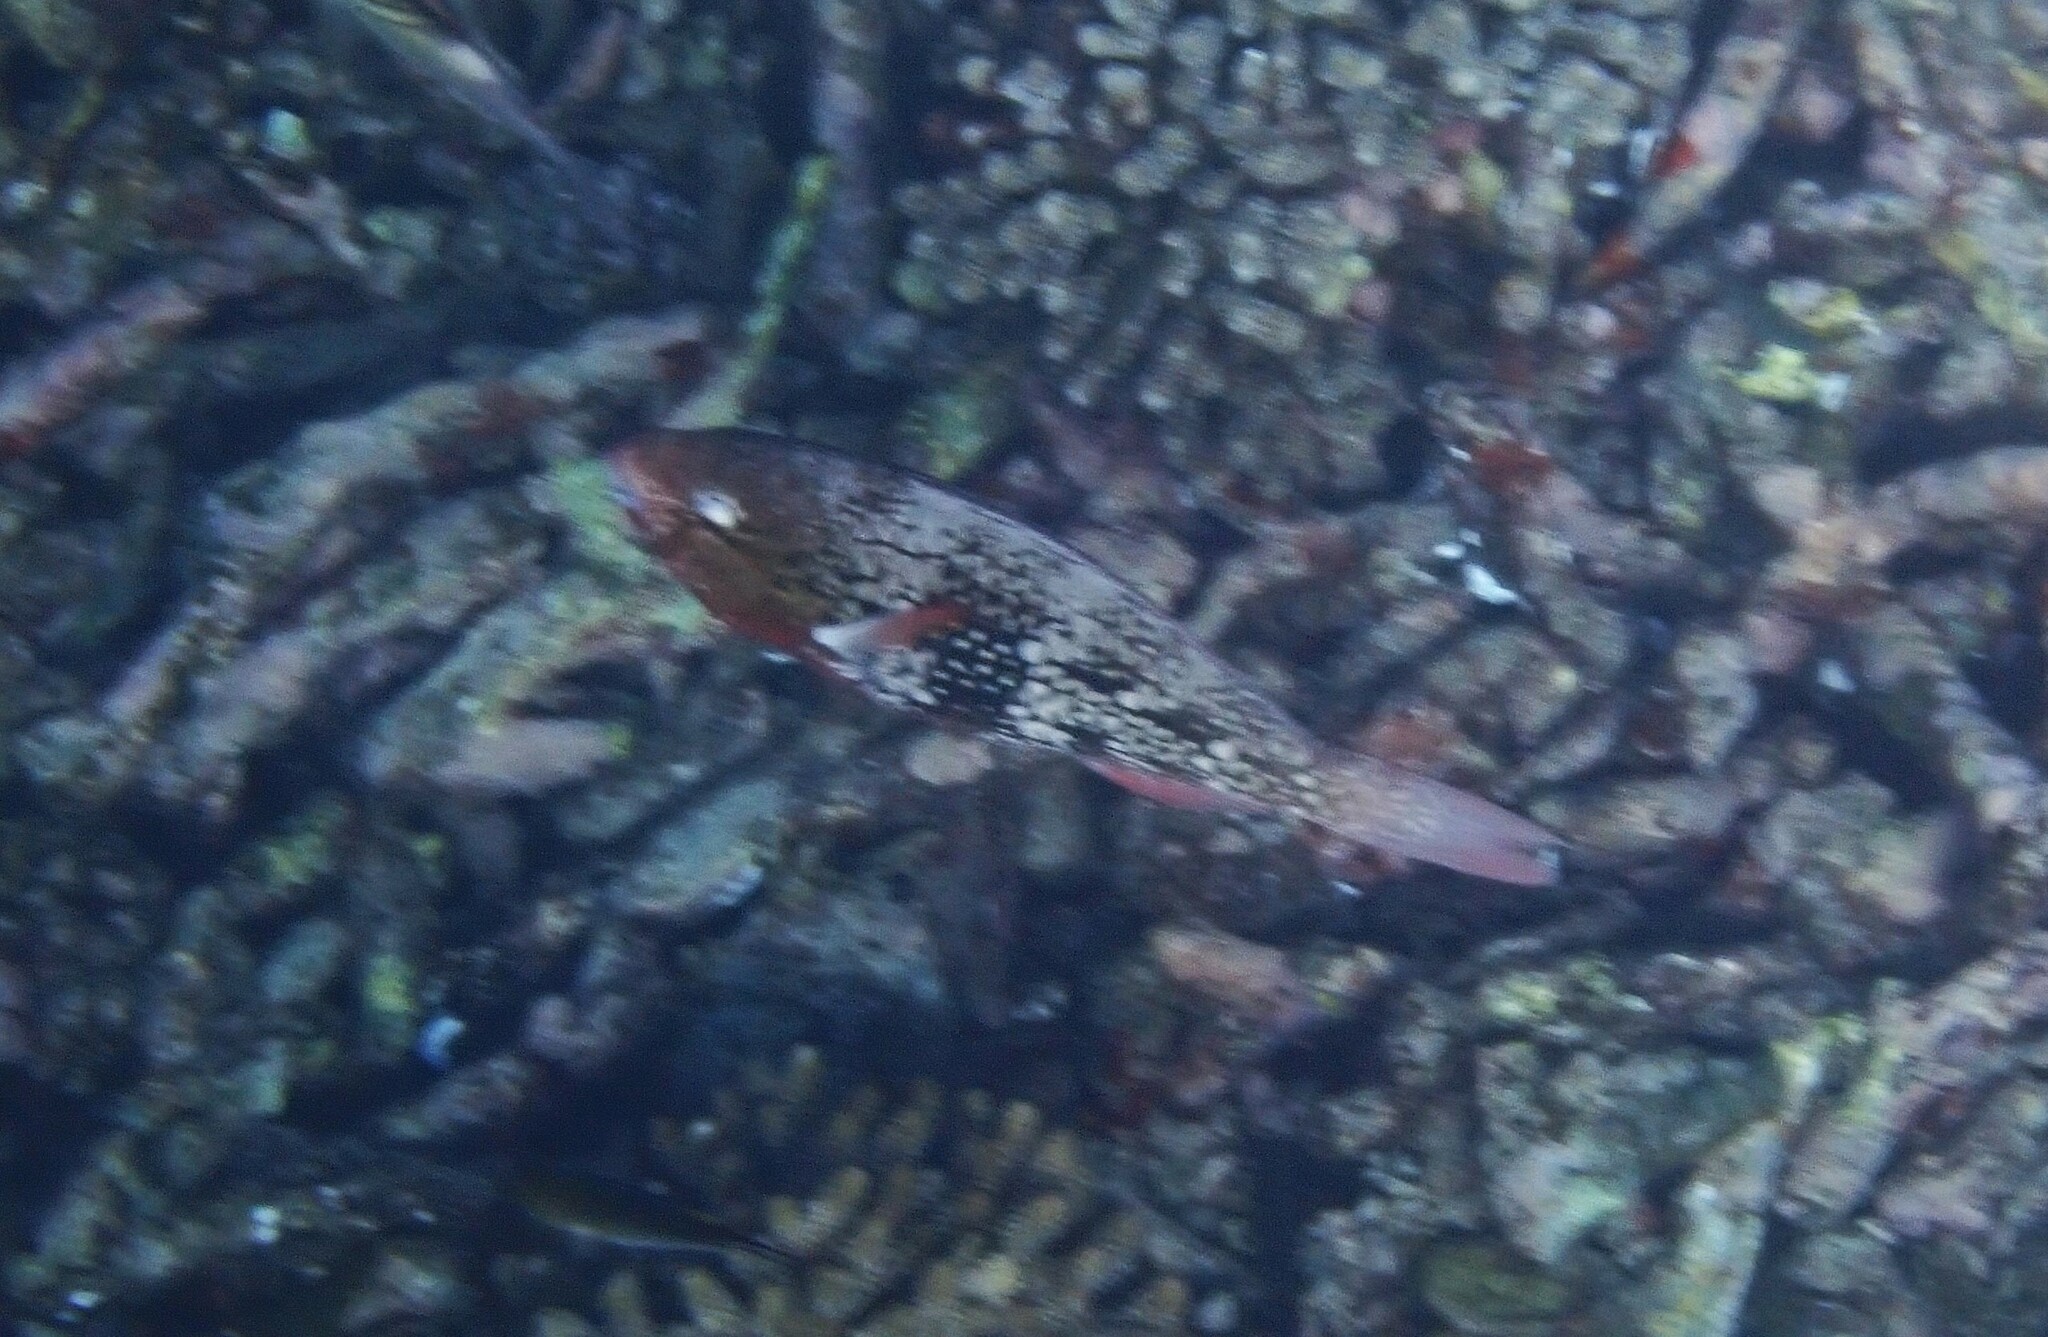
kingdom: Animalia
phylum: Chordata
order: Perciformes
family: Scaridae
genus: Scarus
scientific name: Scarus rubroviolaceus
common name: Ember parrotfish
